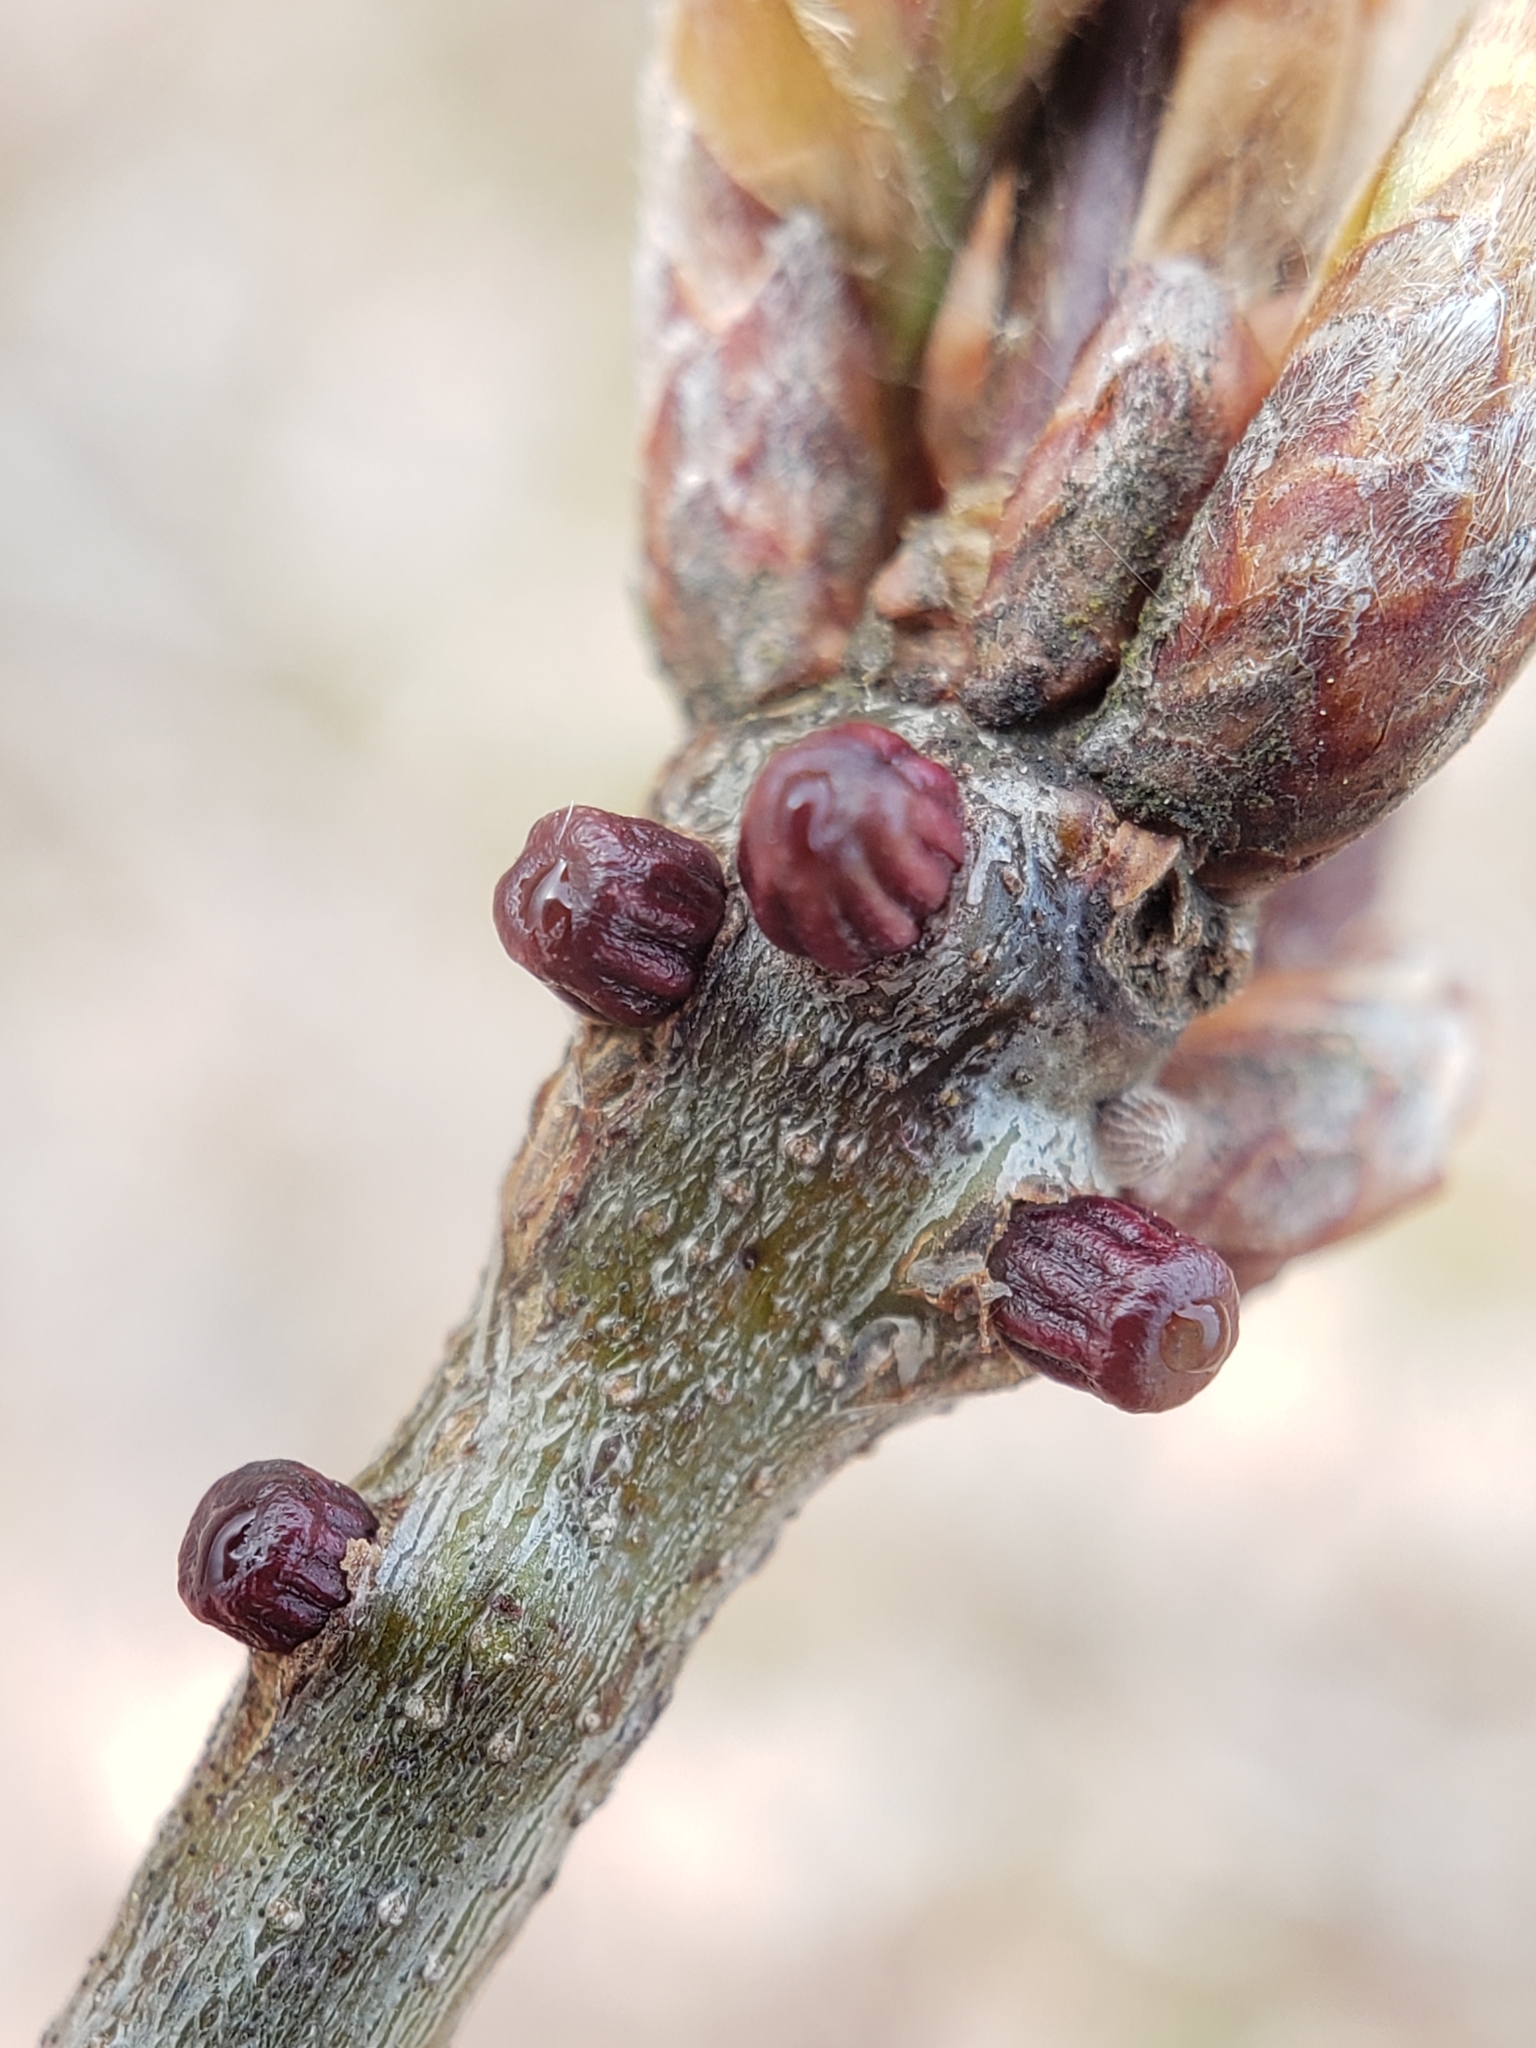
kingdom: Animalia
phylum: Arthropoda
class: Insecta
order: Hymenoptera
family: Cynipidae
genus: Callirhytis
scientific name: Callirhytis
